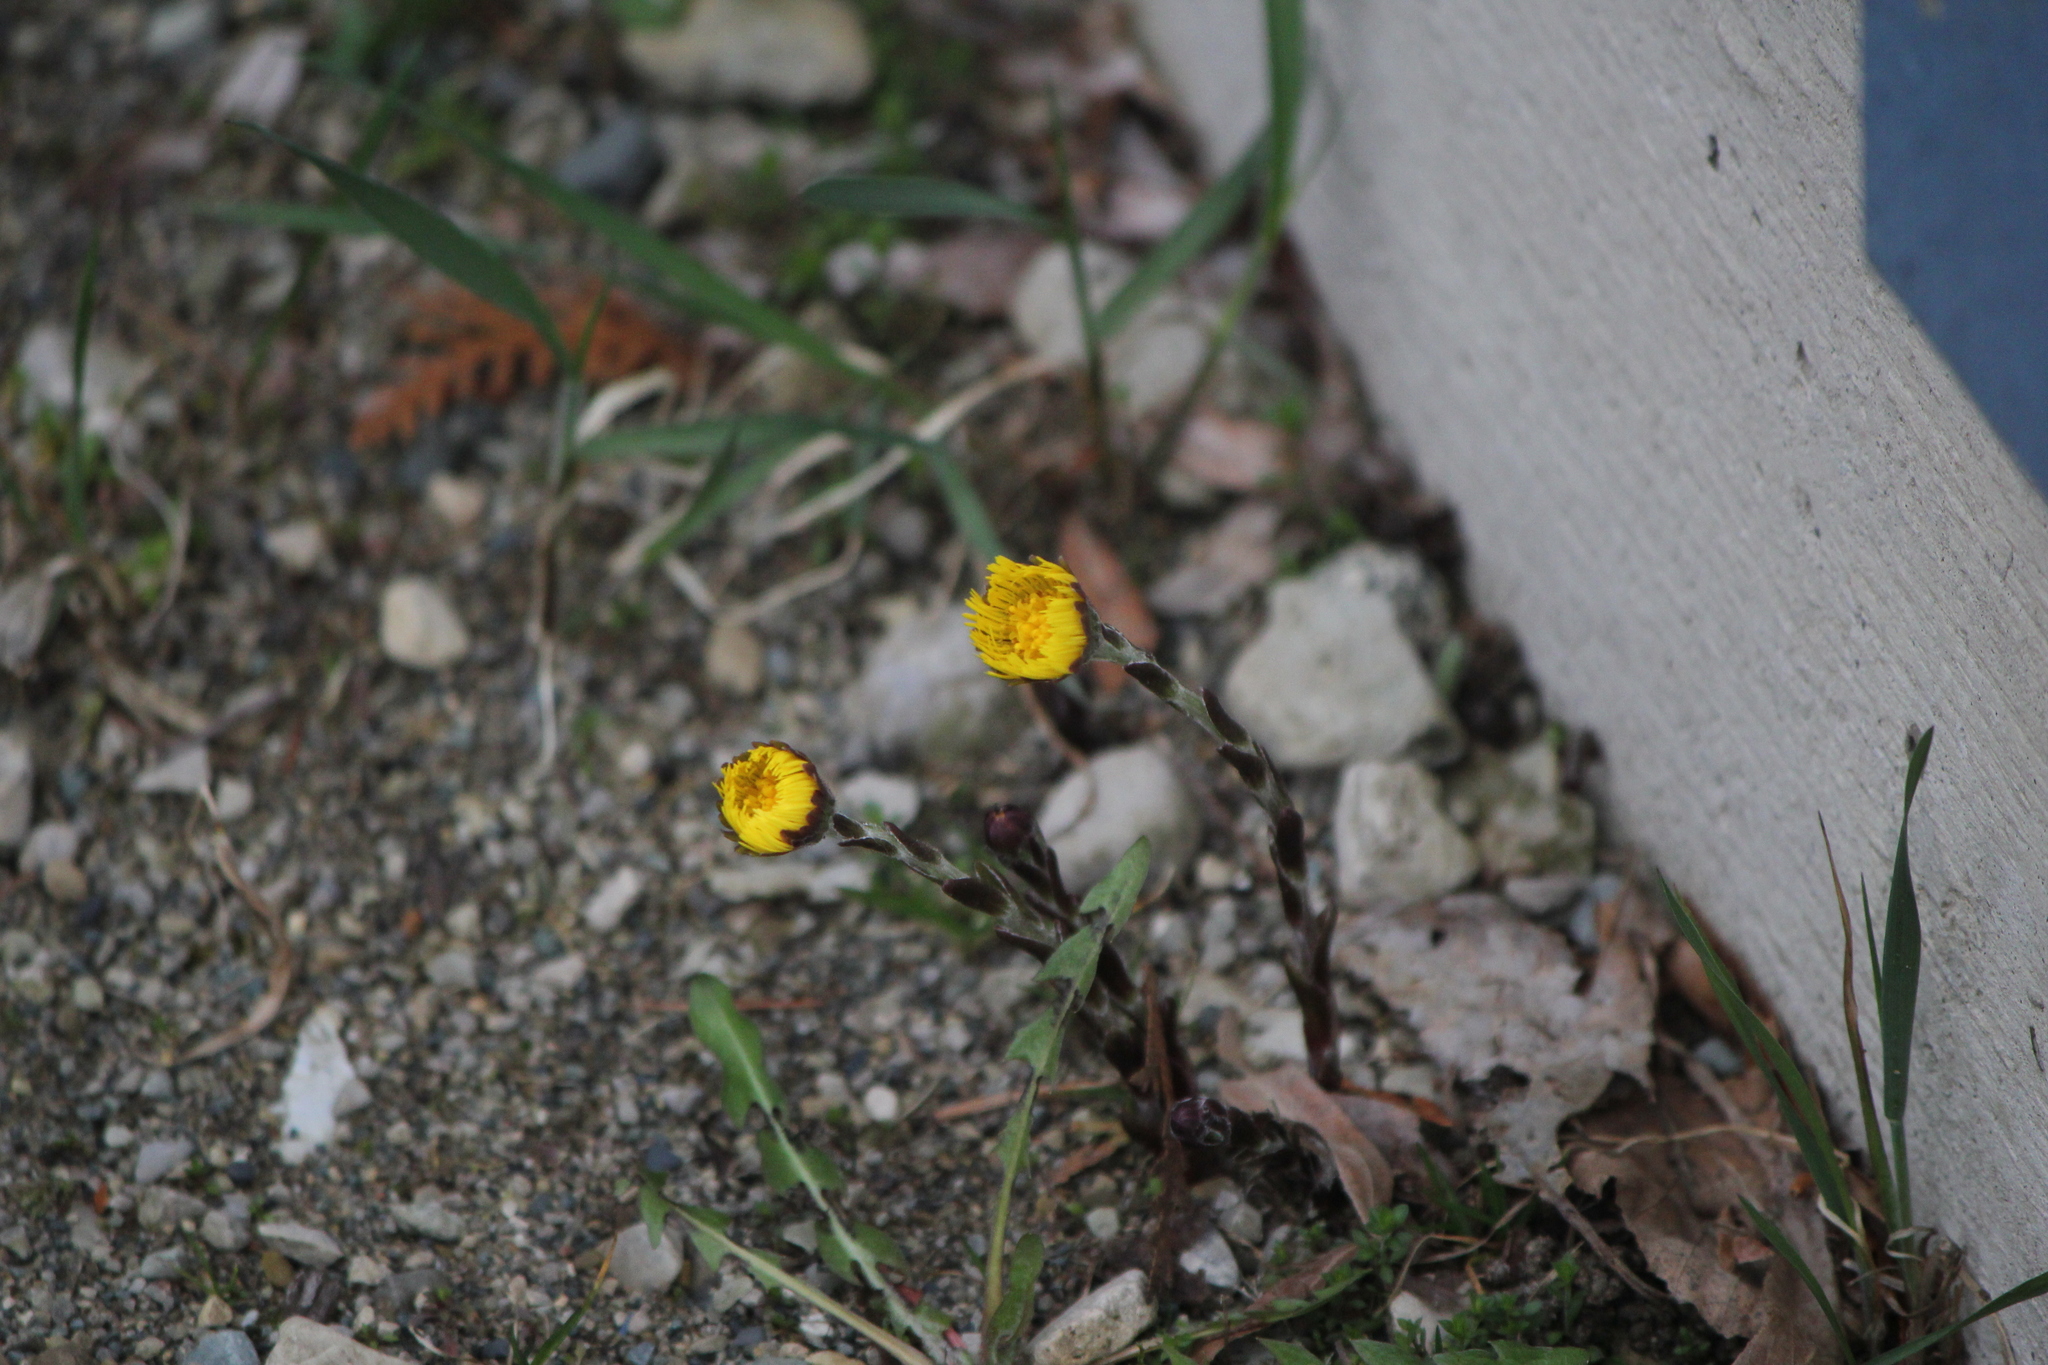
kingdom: Plantae
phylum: Tracheophyta
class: Magnoliopsida
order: Asterales
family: Asteraceae
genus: Tussilago
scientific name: Tussilago farfara
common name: Coltsfoot
